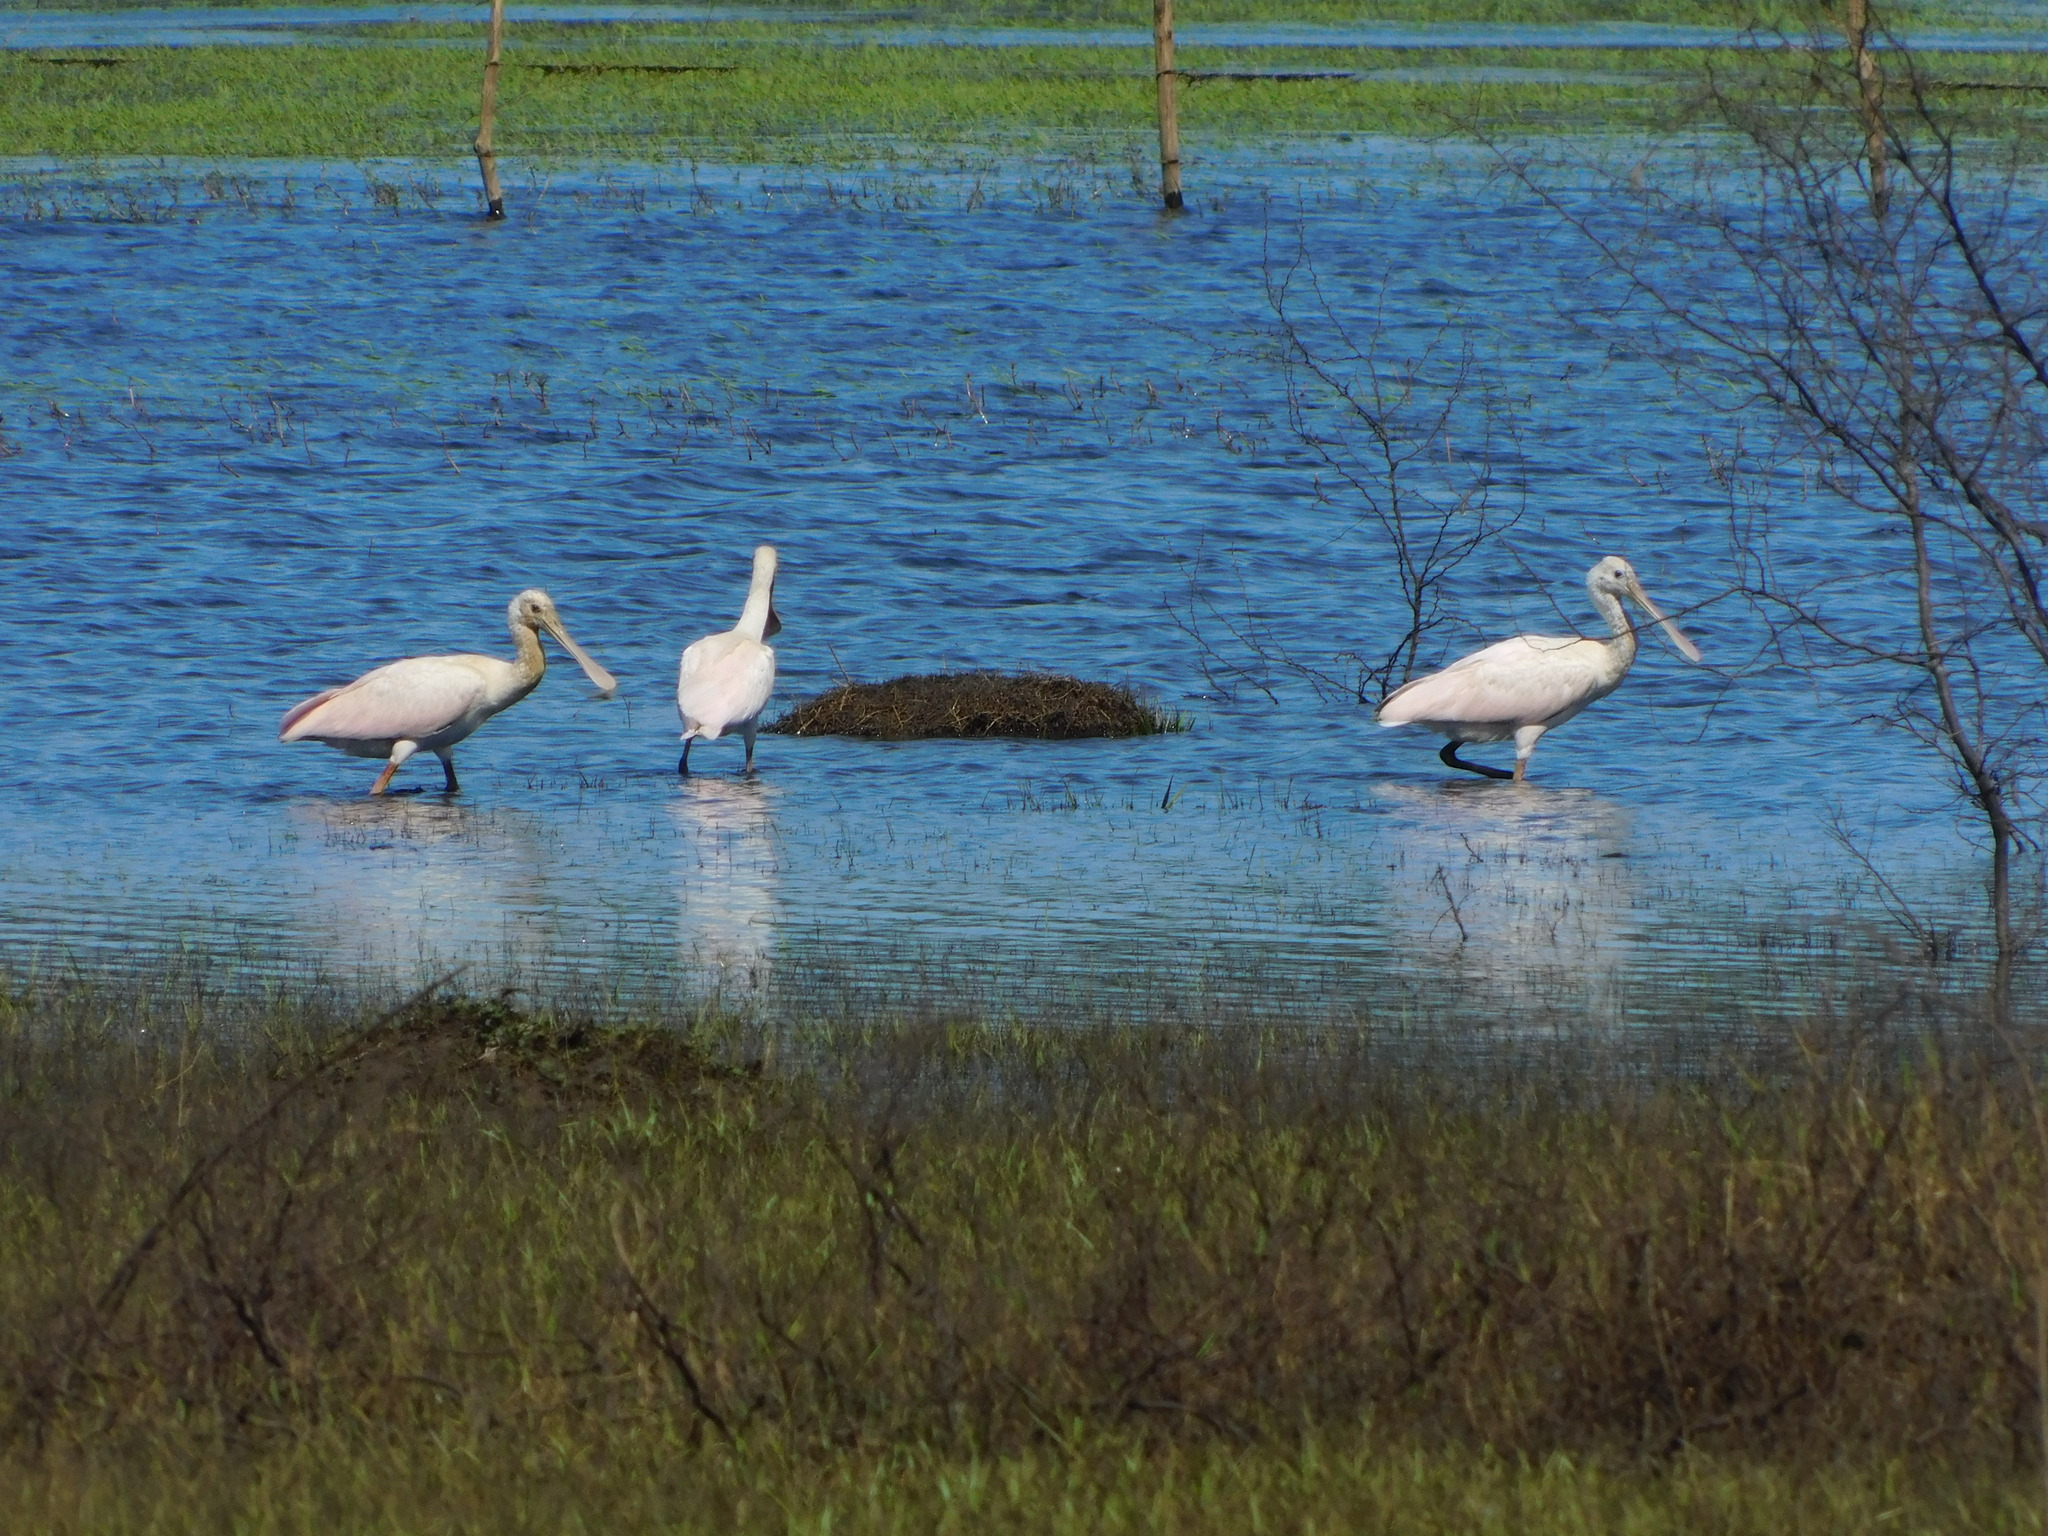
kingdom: Animalia
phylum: Chordata
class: Aves
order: Pelecaniformes
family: Threskiornithidae
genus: Platalea
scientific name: Platalea ajaja
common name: Roseate spoonbill
